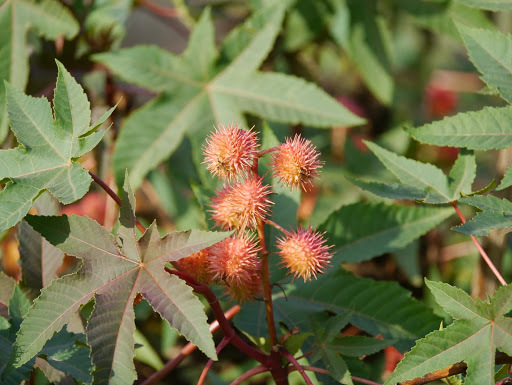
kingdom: Plantae
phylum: Tracheophyta
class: Magnoliopsida
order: Malpighiales
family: Euphorbiaceae
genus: Ricinus
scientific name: Ricinus communis
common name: Castor-oil-plant
